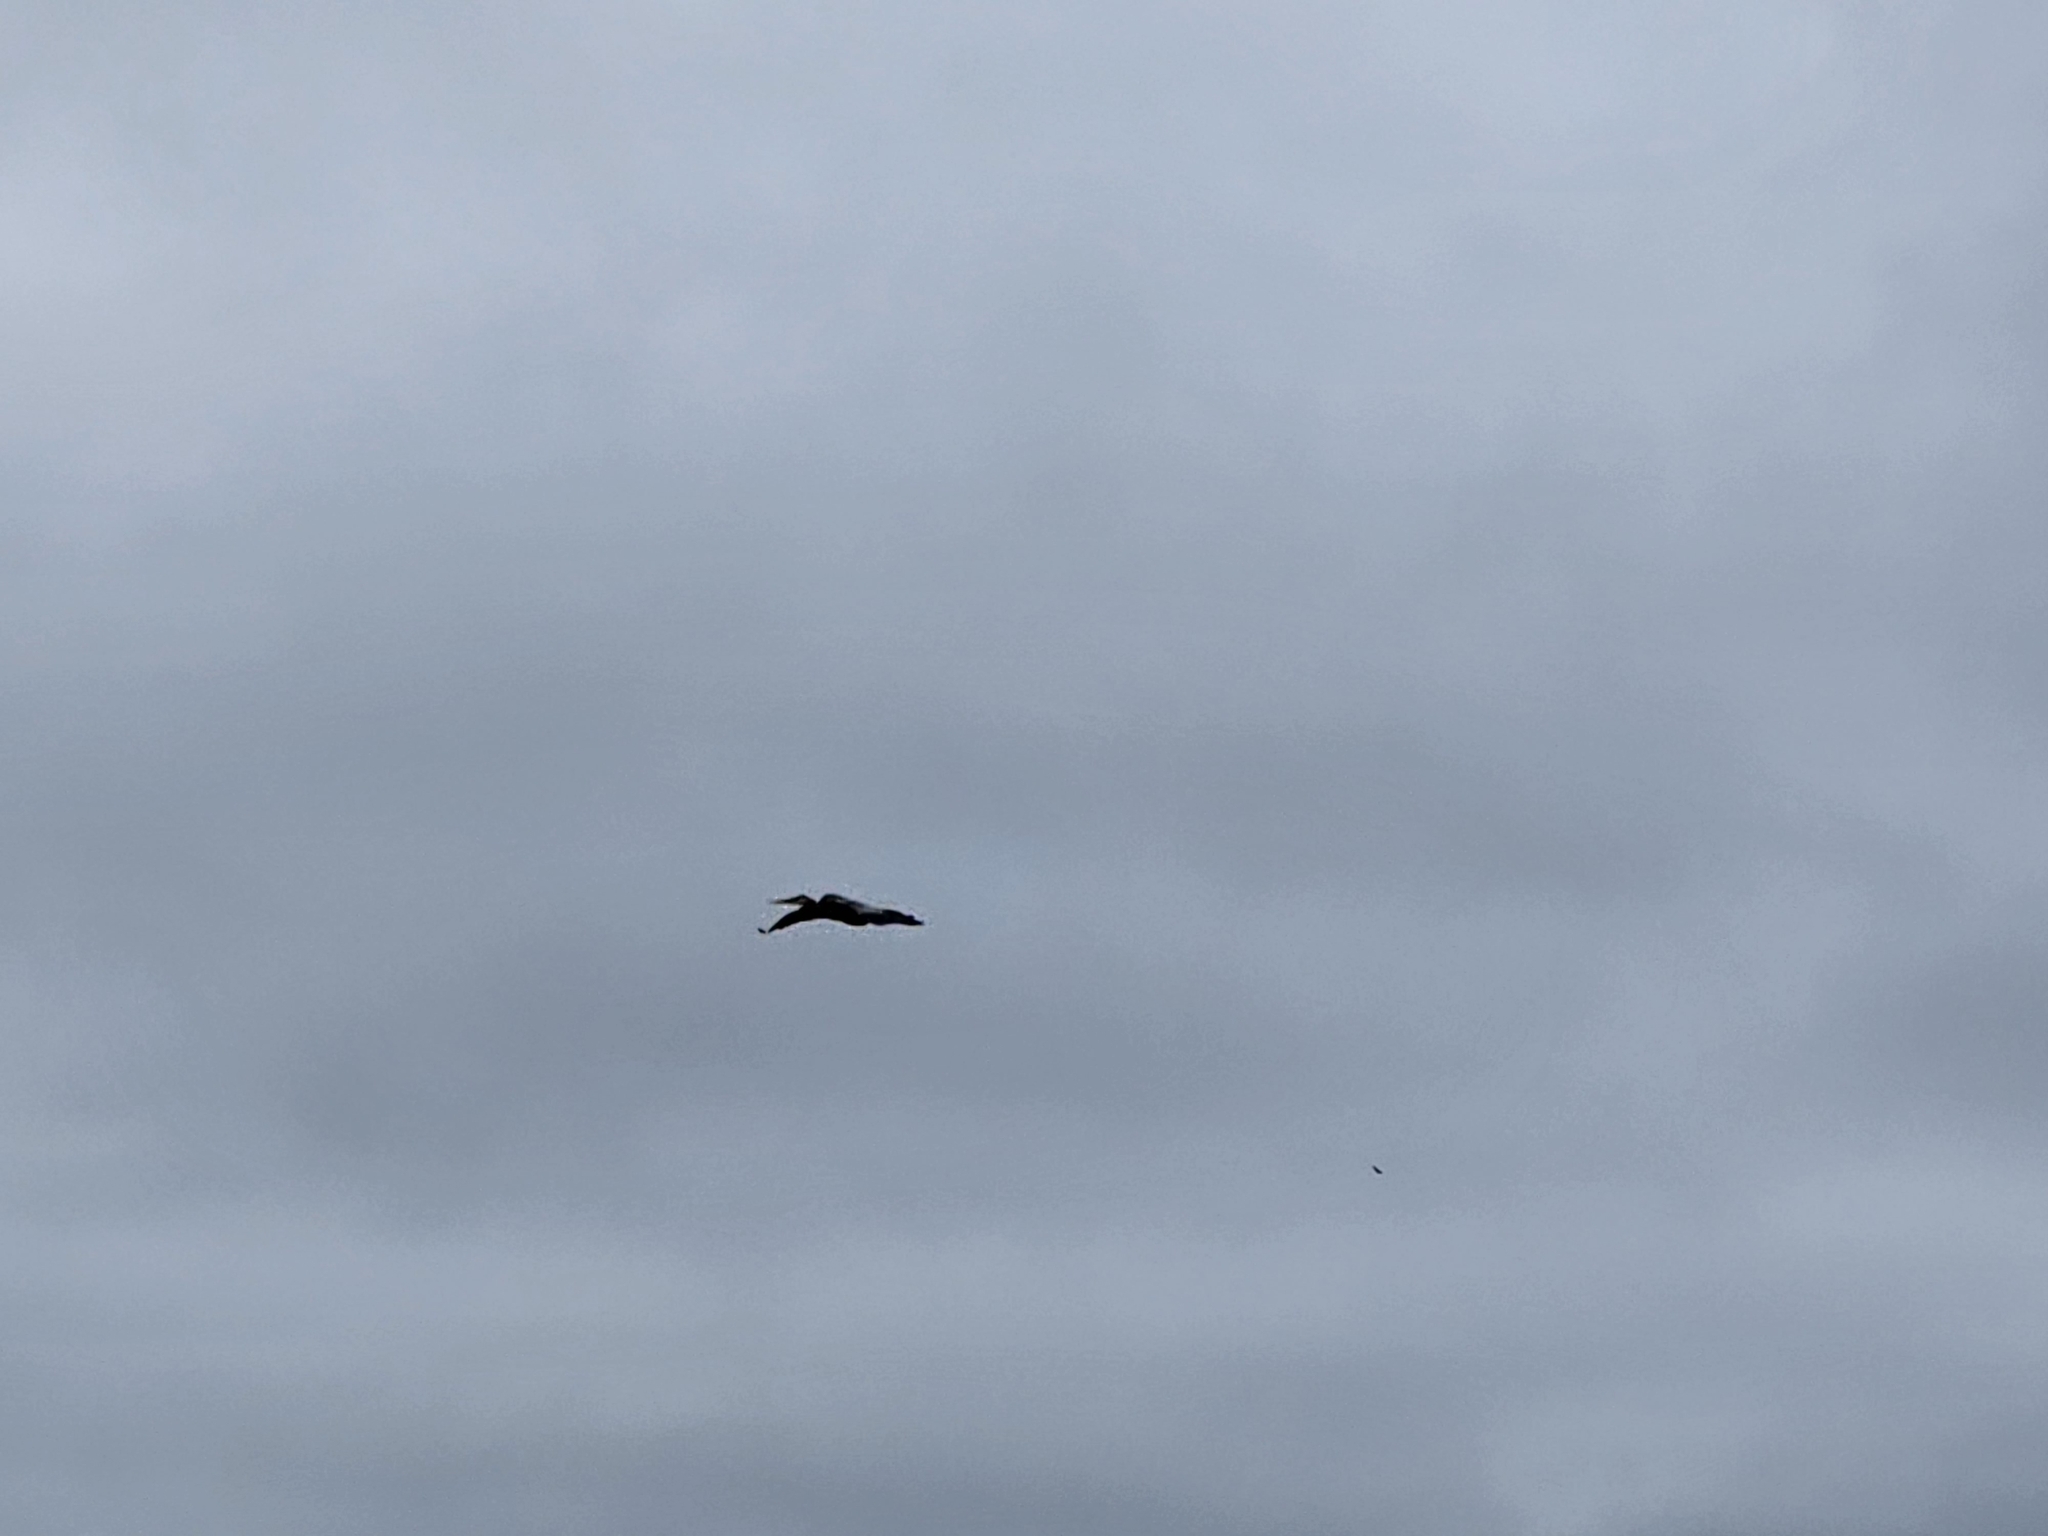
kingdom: Animalia
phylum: Chordata
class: Aves
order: Pelecaniformes
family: Ardeidae
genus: Ardea
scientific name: Ardea herodias
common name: Great blue heron
